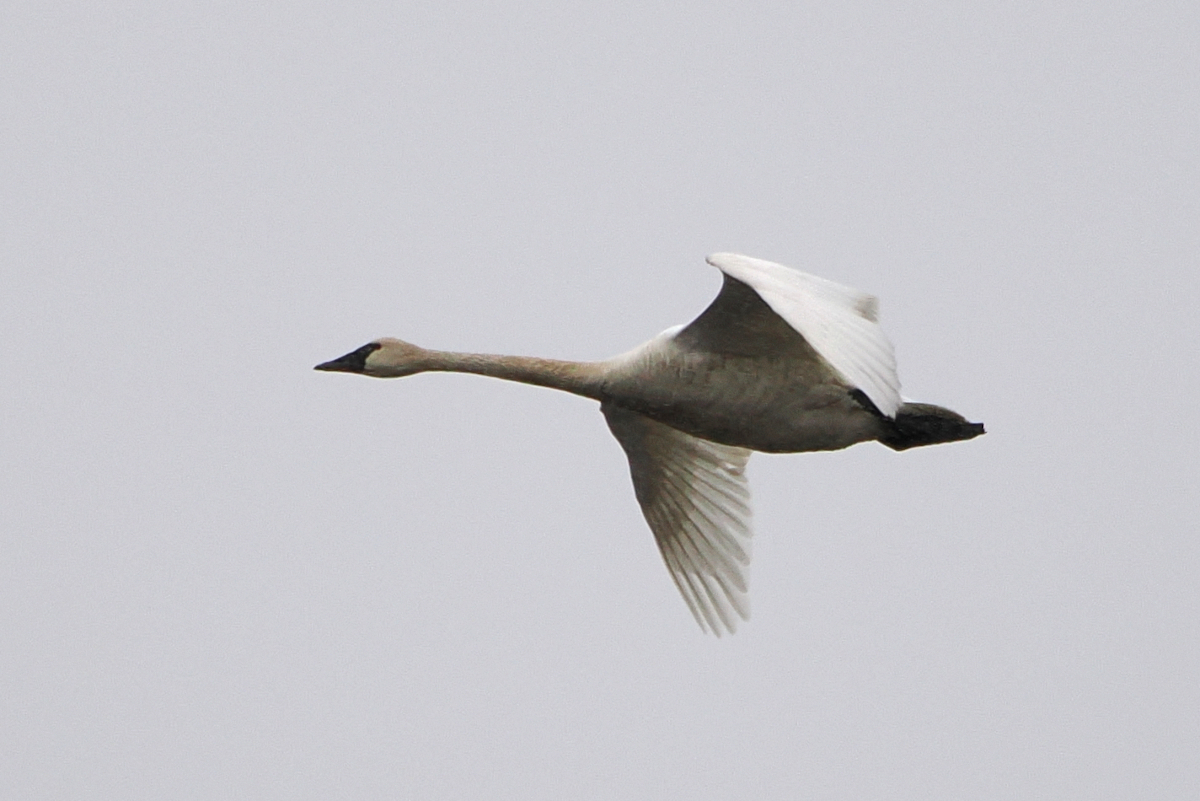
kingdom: Animalia
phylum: Chordata
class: Aves
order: Anseriformes
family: Anatidae
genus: Cygnus
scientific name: Cygnus columbianus
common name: Tundra swan
